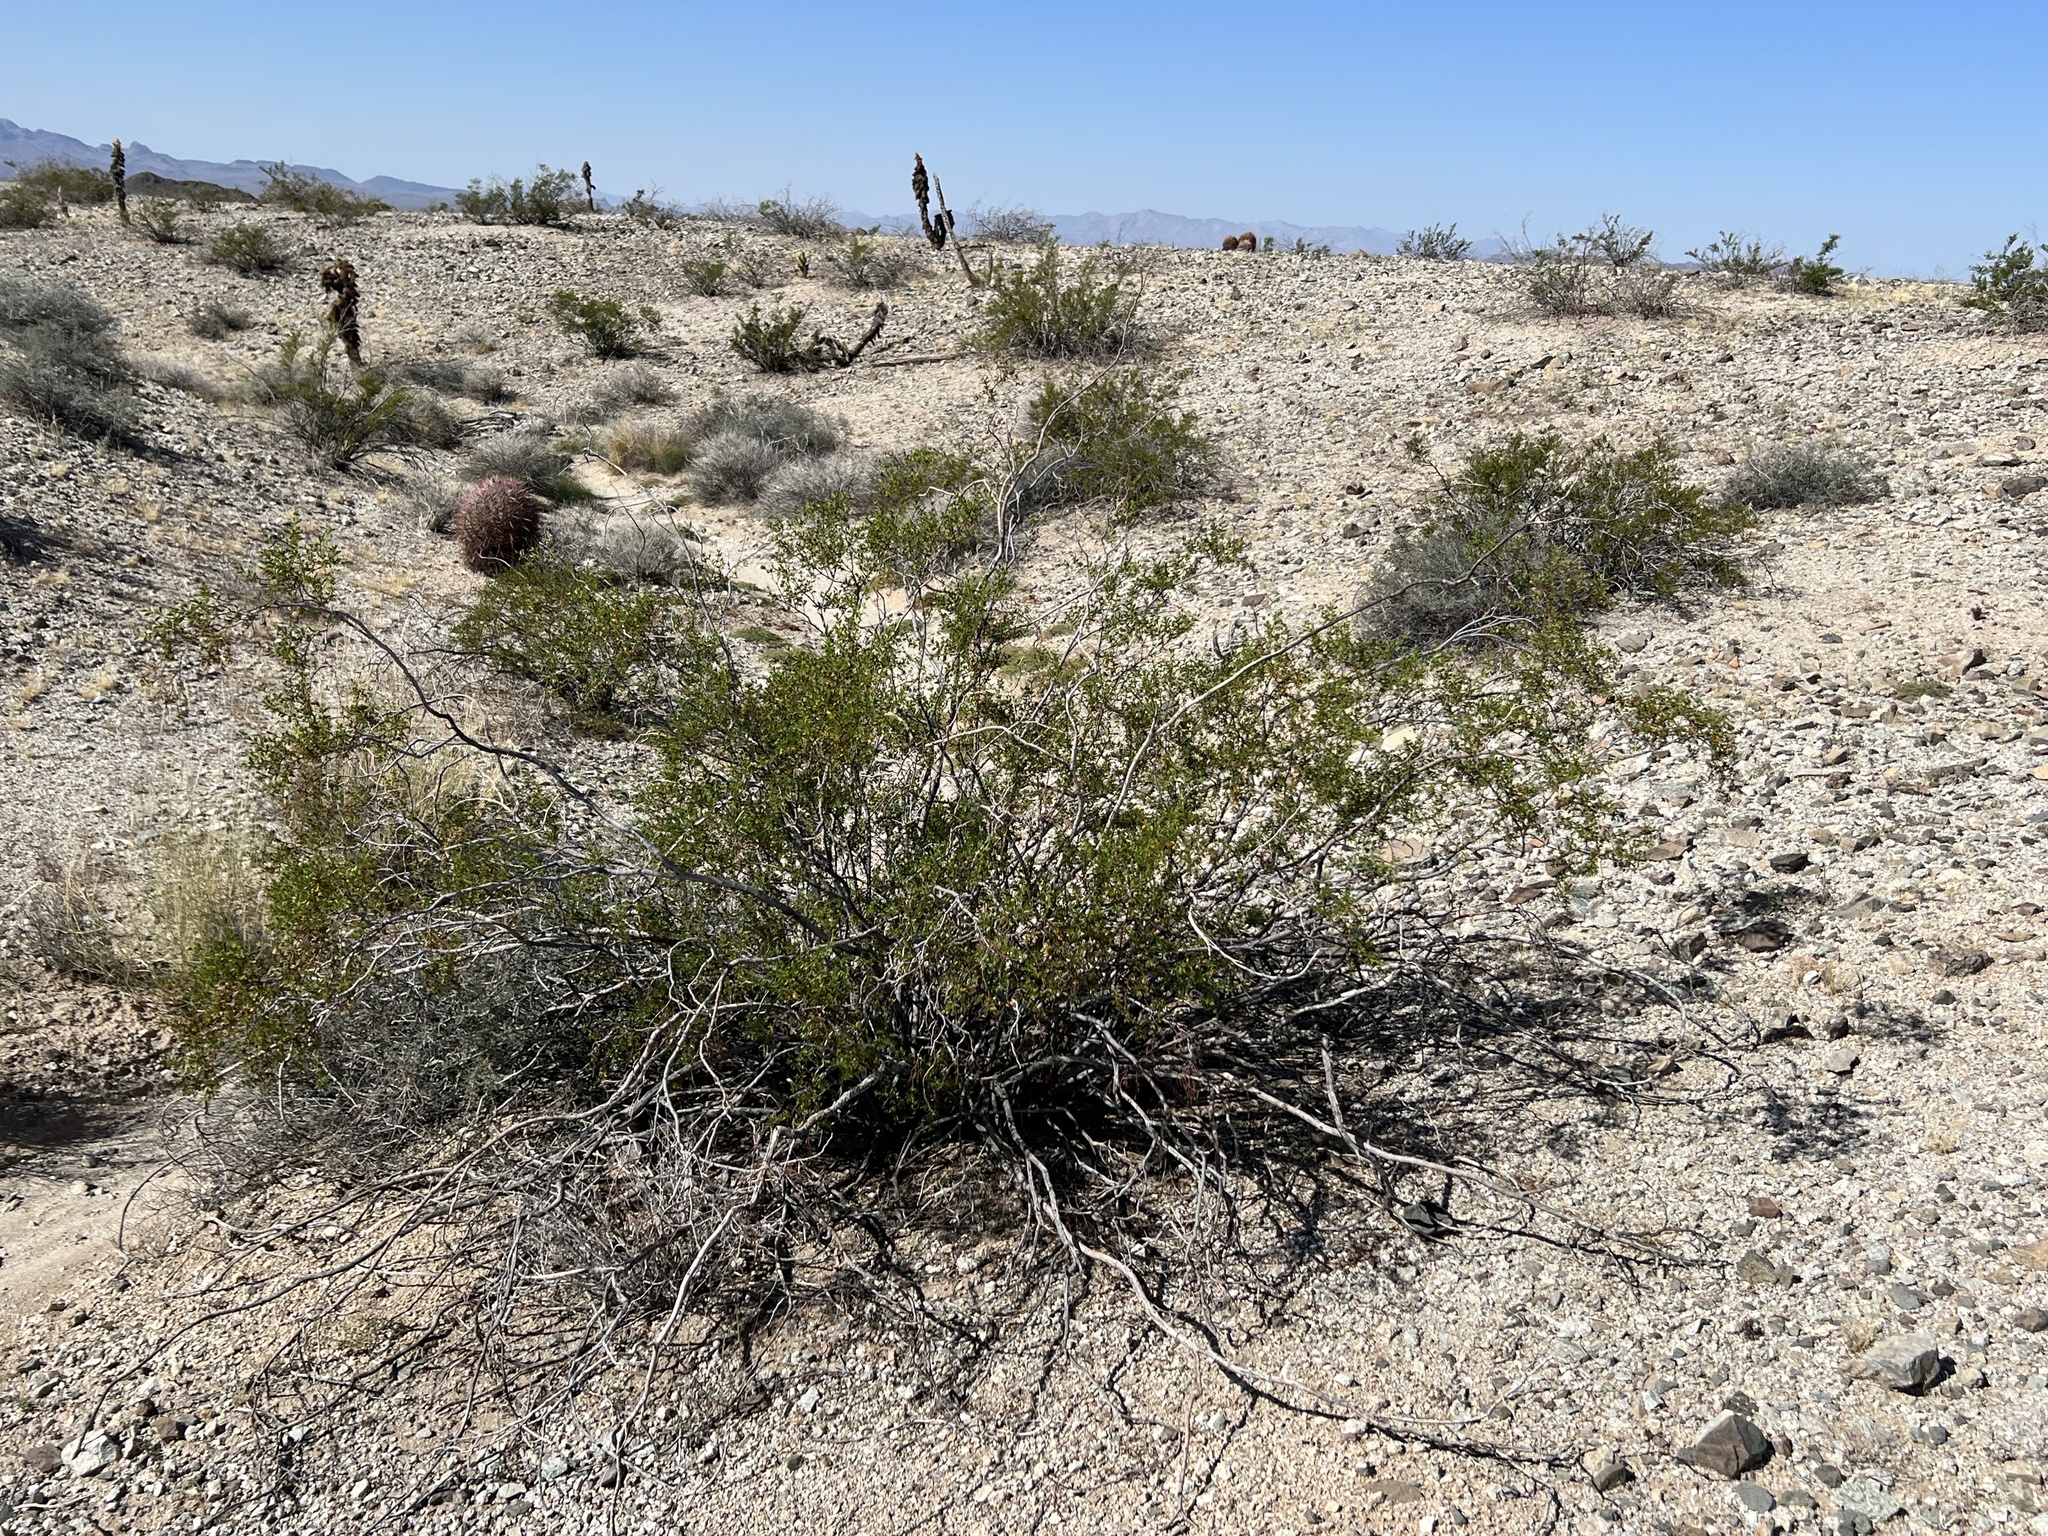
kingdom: Plantae
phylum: Tracheophyta
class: Magnoliopsida
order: Zygophyllales
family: Zygophyllaceae
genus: Larrea
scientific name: Larrea tridentata
